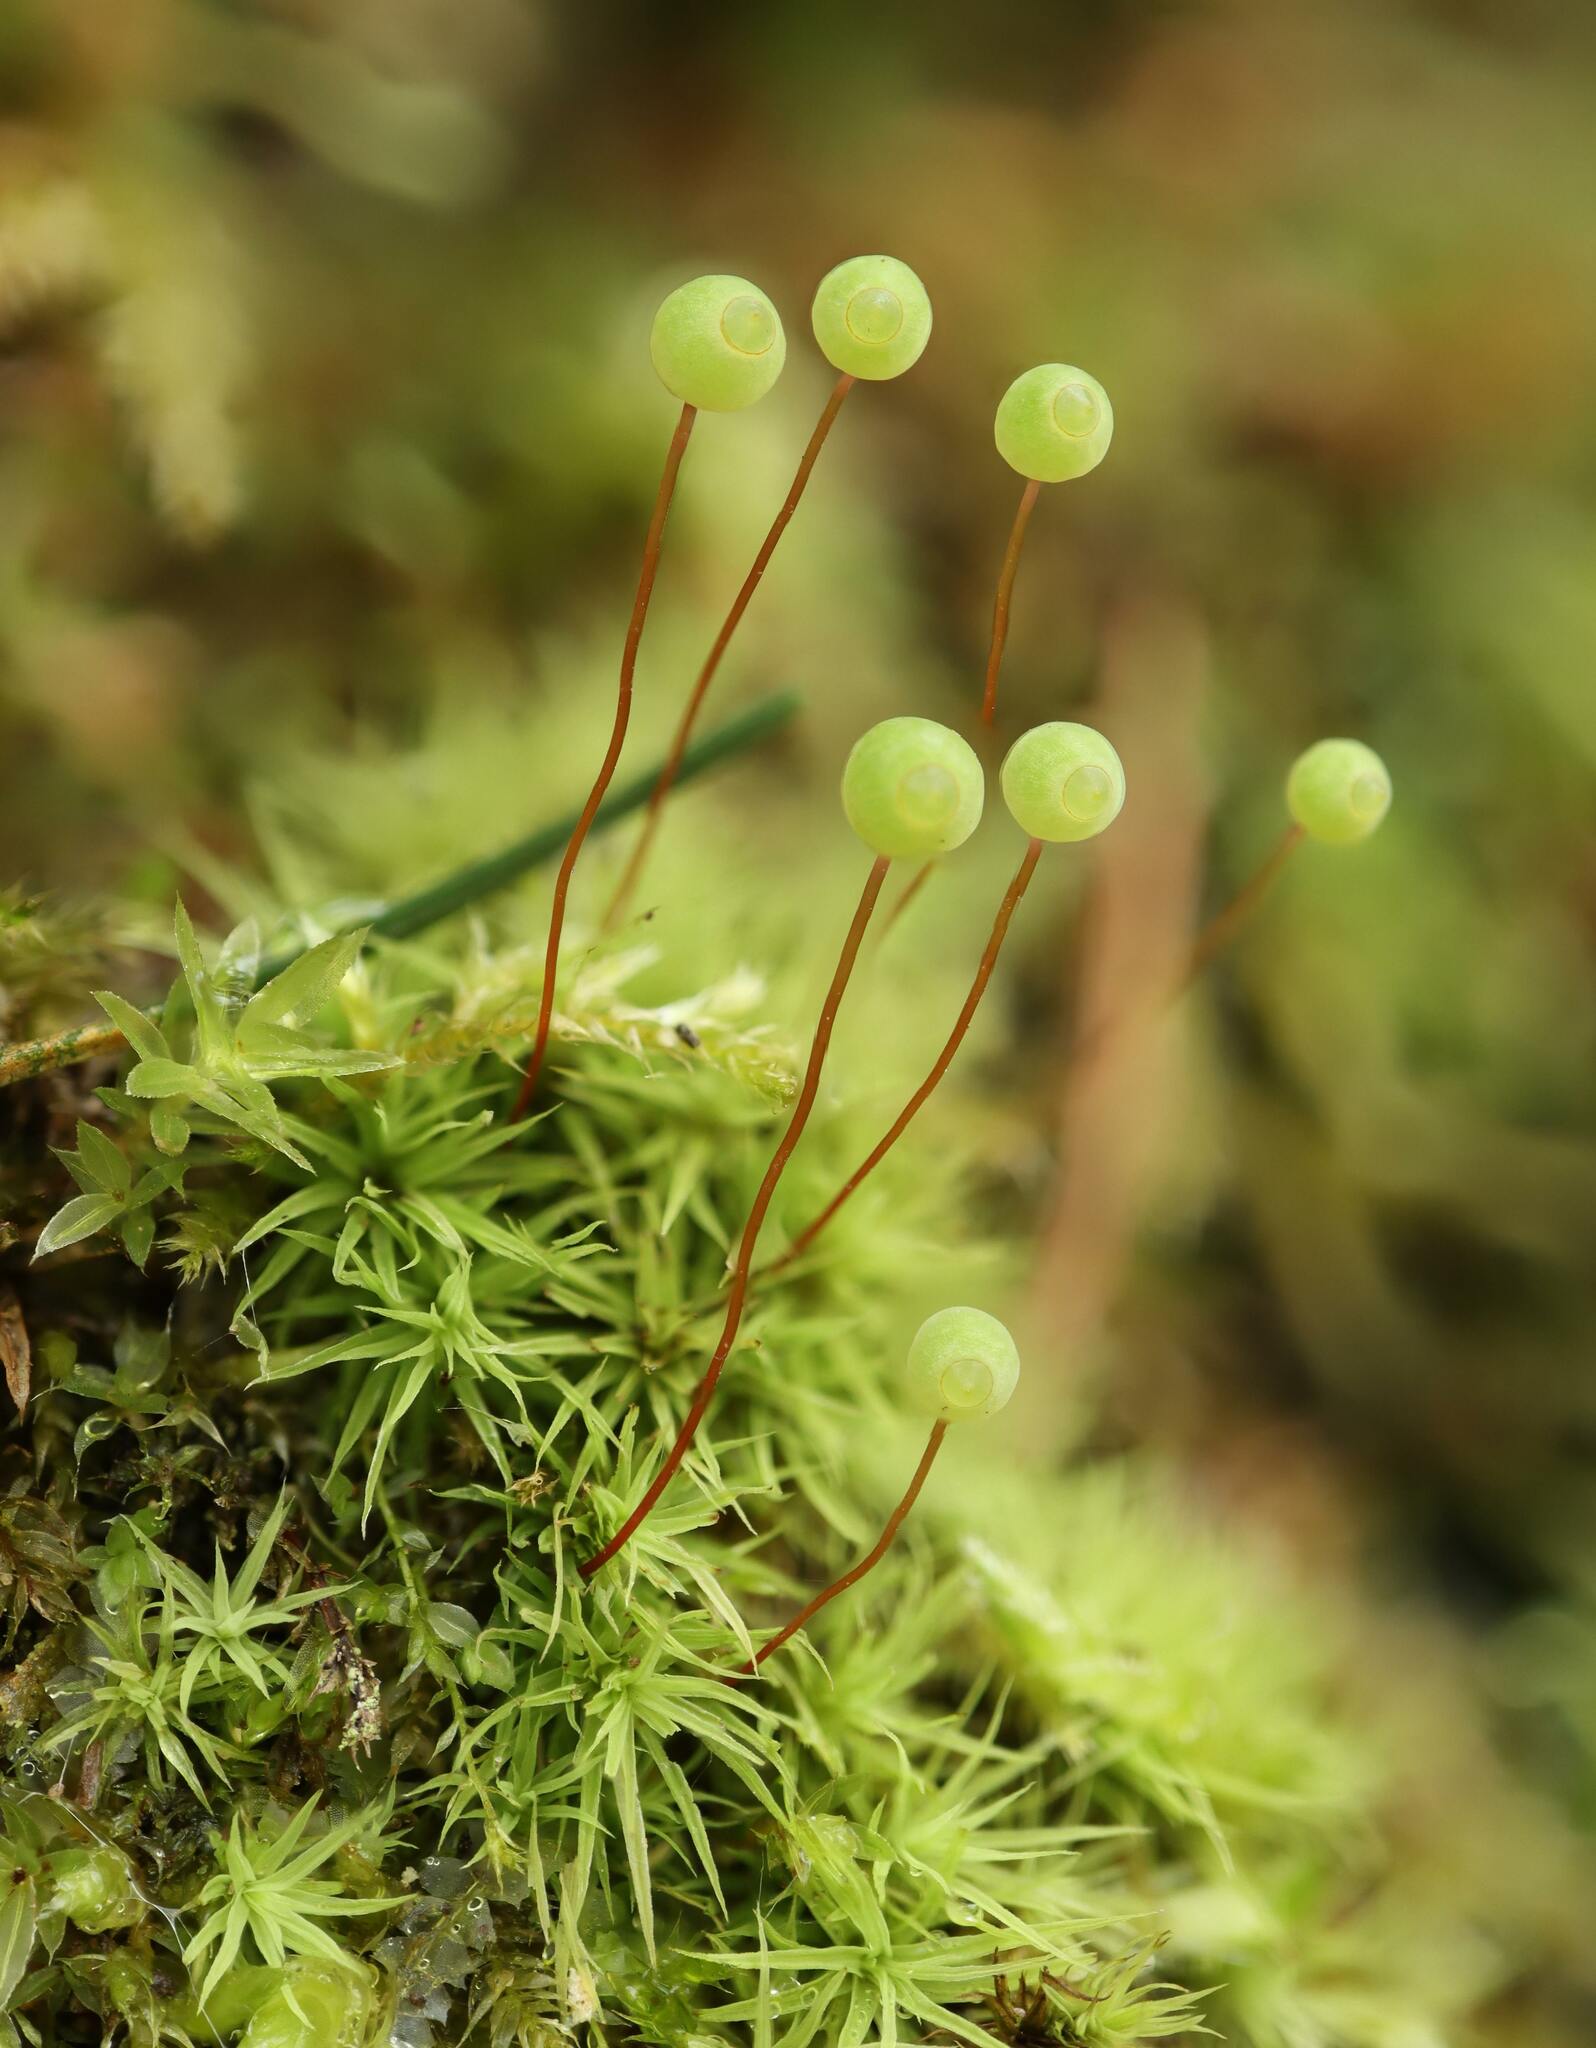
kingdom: Plantae
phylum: Bryophyta
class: Bryopsida
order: Bartramiales
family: Bartramiaceae
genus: Bartramia
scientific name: Bartramia ithyphylla
